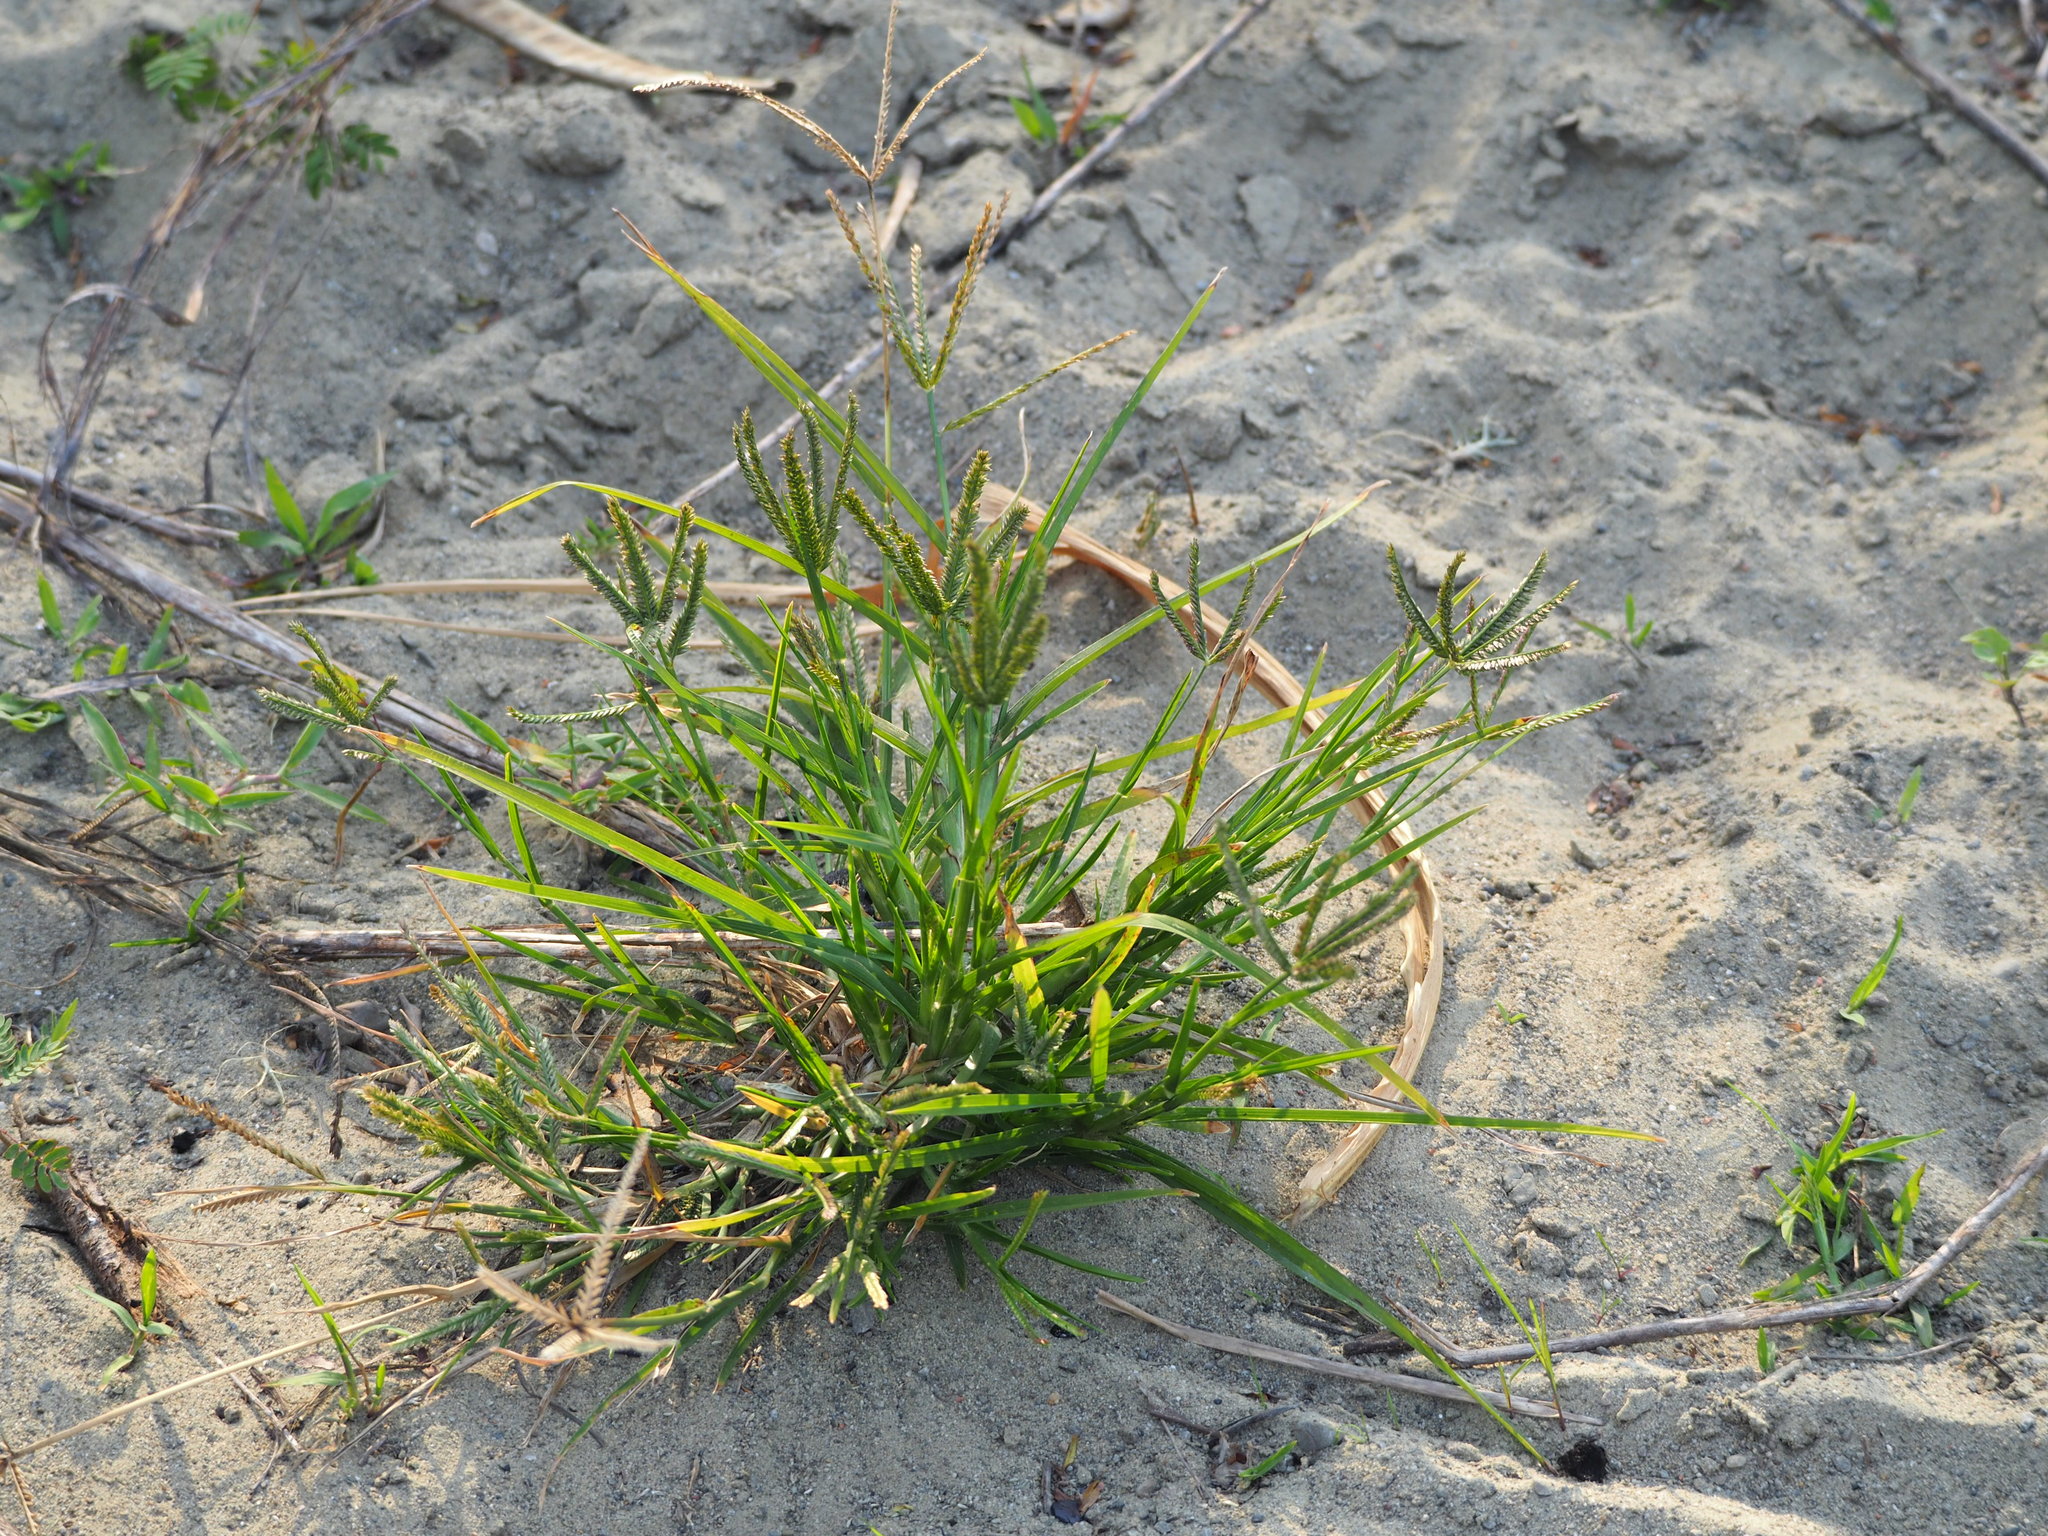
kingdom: Plantae
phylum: Tracheophyta
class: Liliopsida
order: Poales
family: Poaceae
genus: Eleusine
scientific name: Eleusine indica
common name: Yard-grass
